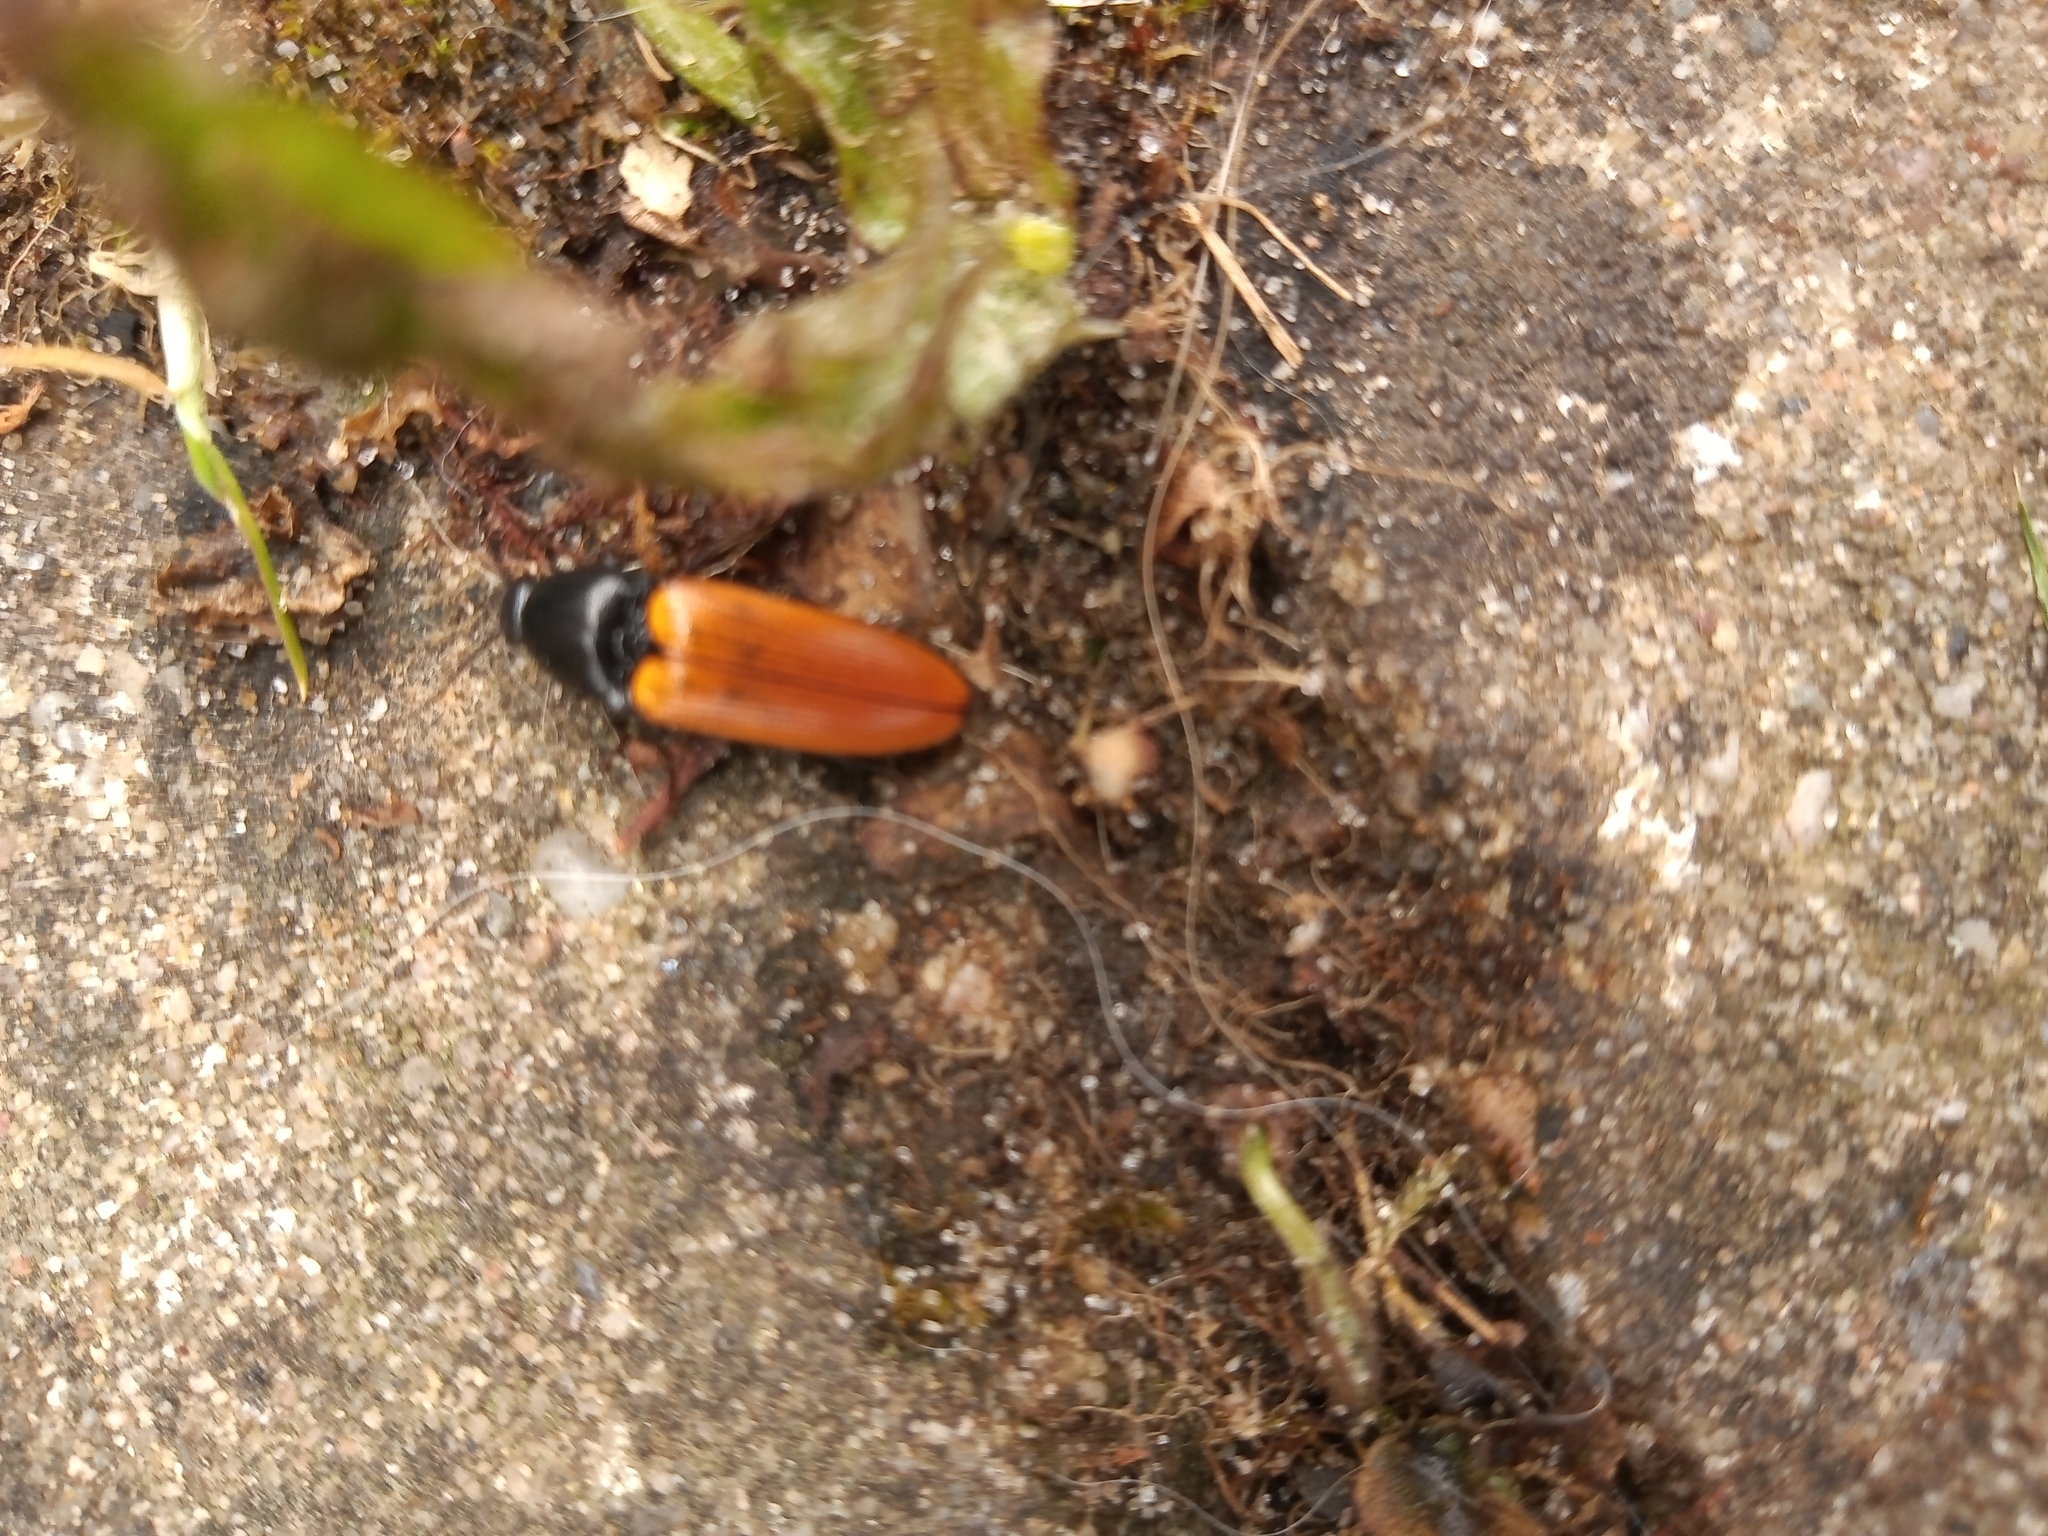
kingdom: Animalia
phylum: Arthropoda
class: Insecta
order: Coleoptera
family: Elateridae
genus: Ampedus
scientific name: Ampedus nigroflavus
